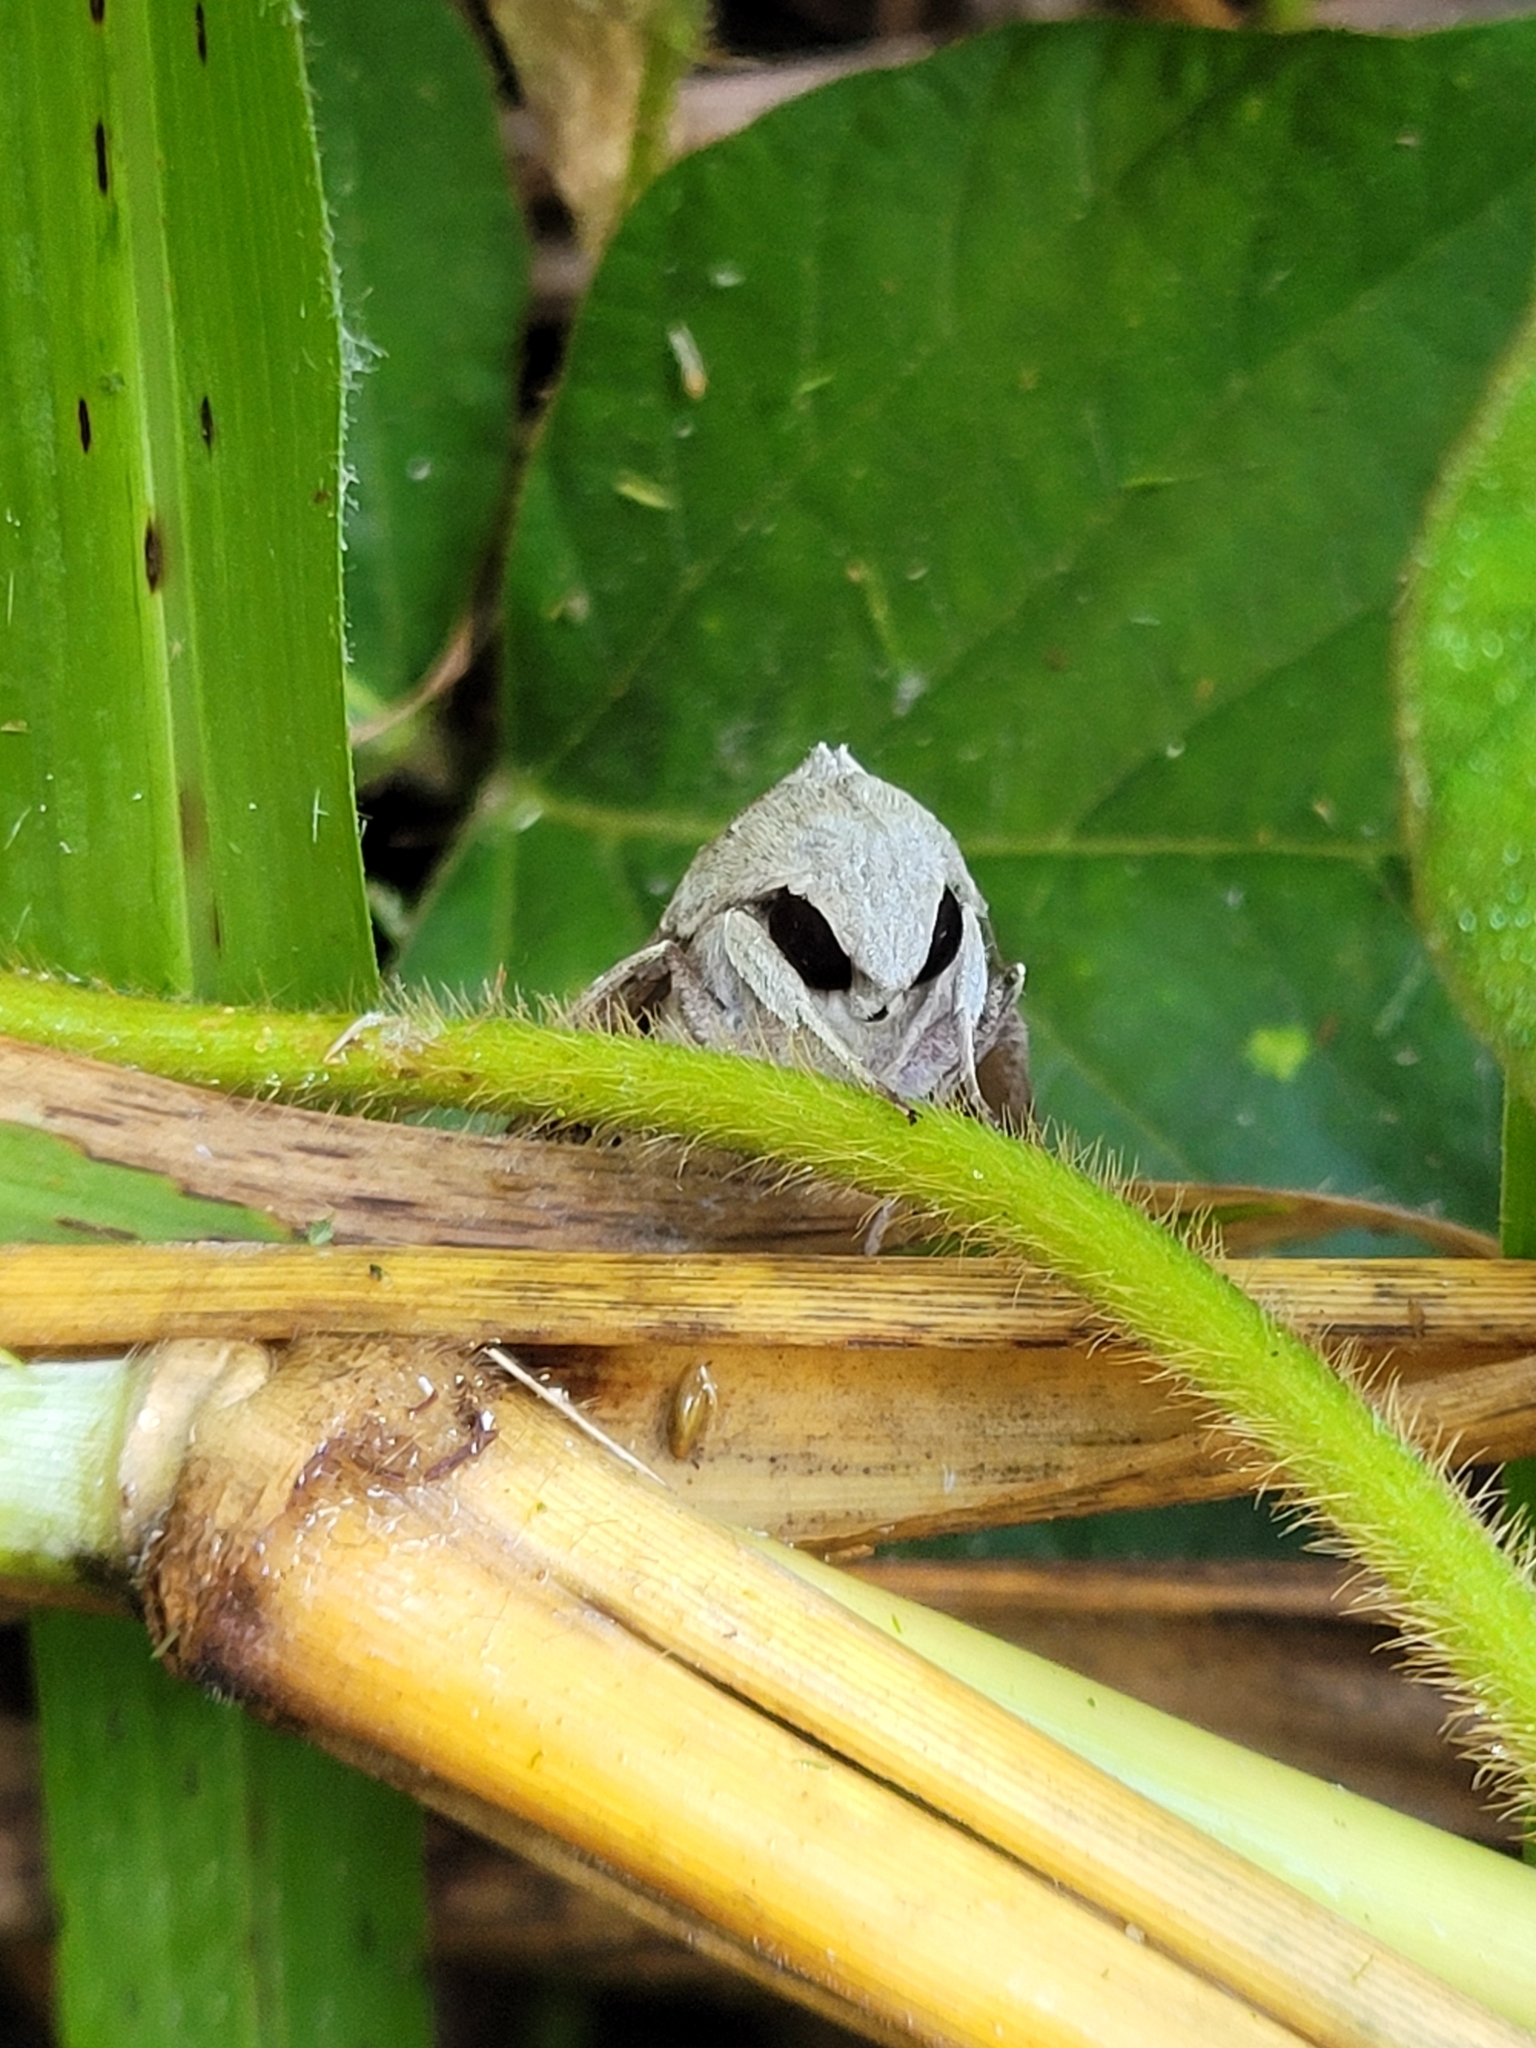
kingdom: Animalia
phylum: Arthropoda
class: Insecta
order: Lepidoptera
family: Sphingidae
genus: Erinnyis
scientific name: Erinnyis ello
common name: Ello sphinx
